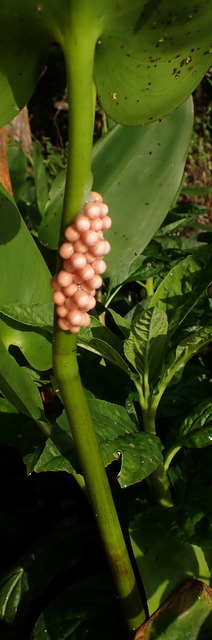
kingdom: Animalia
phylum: Mollusca
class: Gastropoda
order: Architaenioglossa
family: Ampullariidae
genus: Pomacea
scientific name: Pomacea paludosa
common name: Florida applesnail
